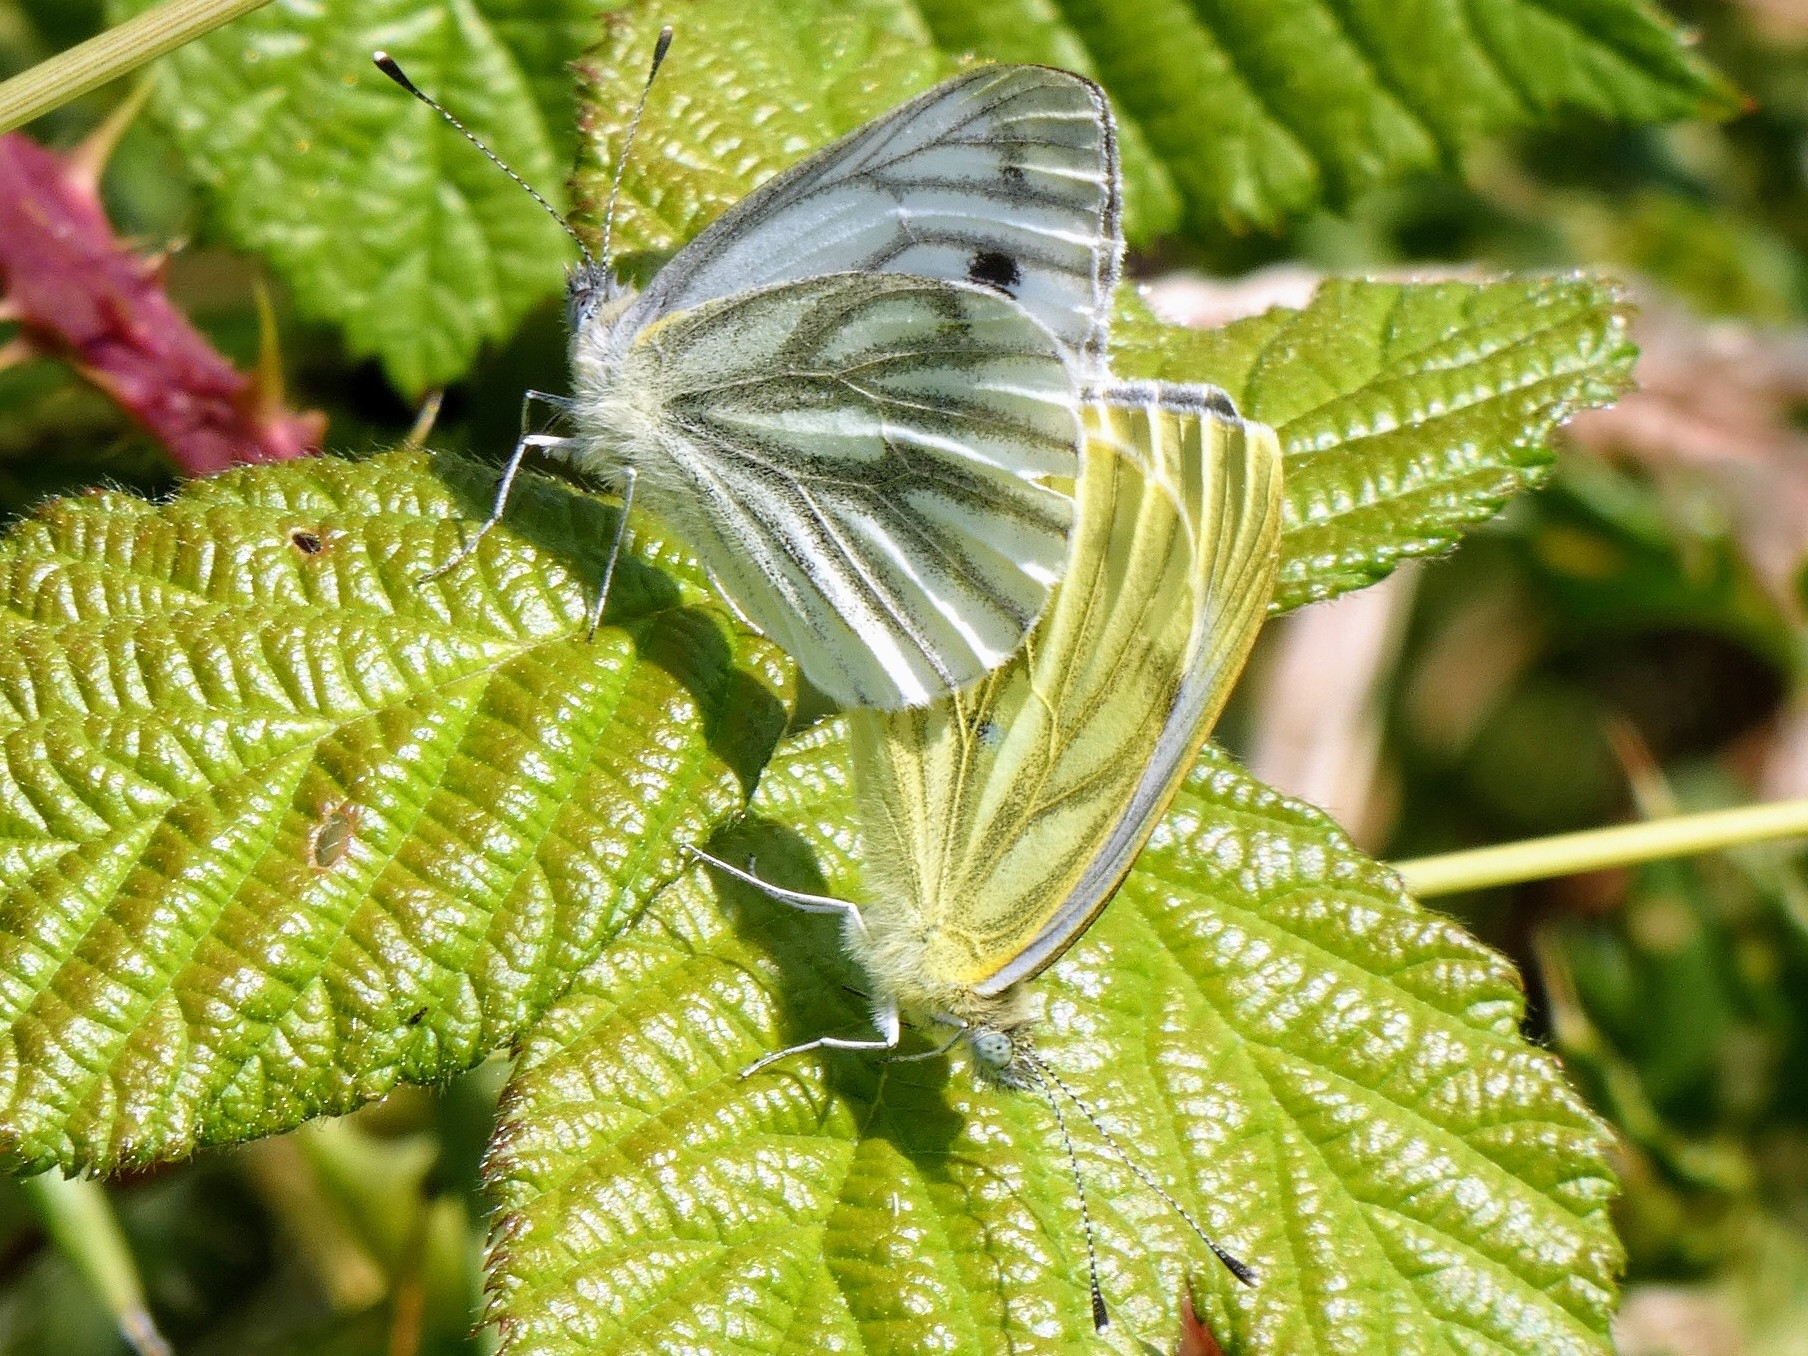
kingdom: Animalia
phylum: Arthropoda
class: Insecta
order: Lepidoptera
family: Pieridae
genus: Pieris
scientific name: Pieris napi
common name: Green-veined white
